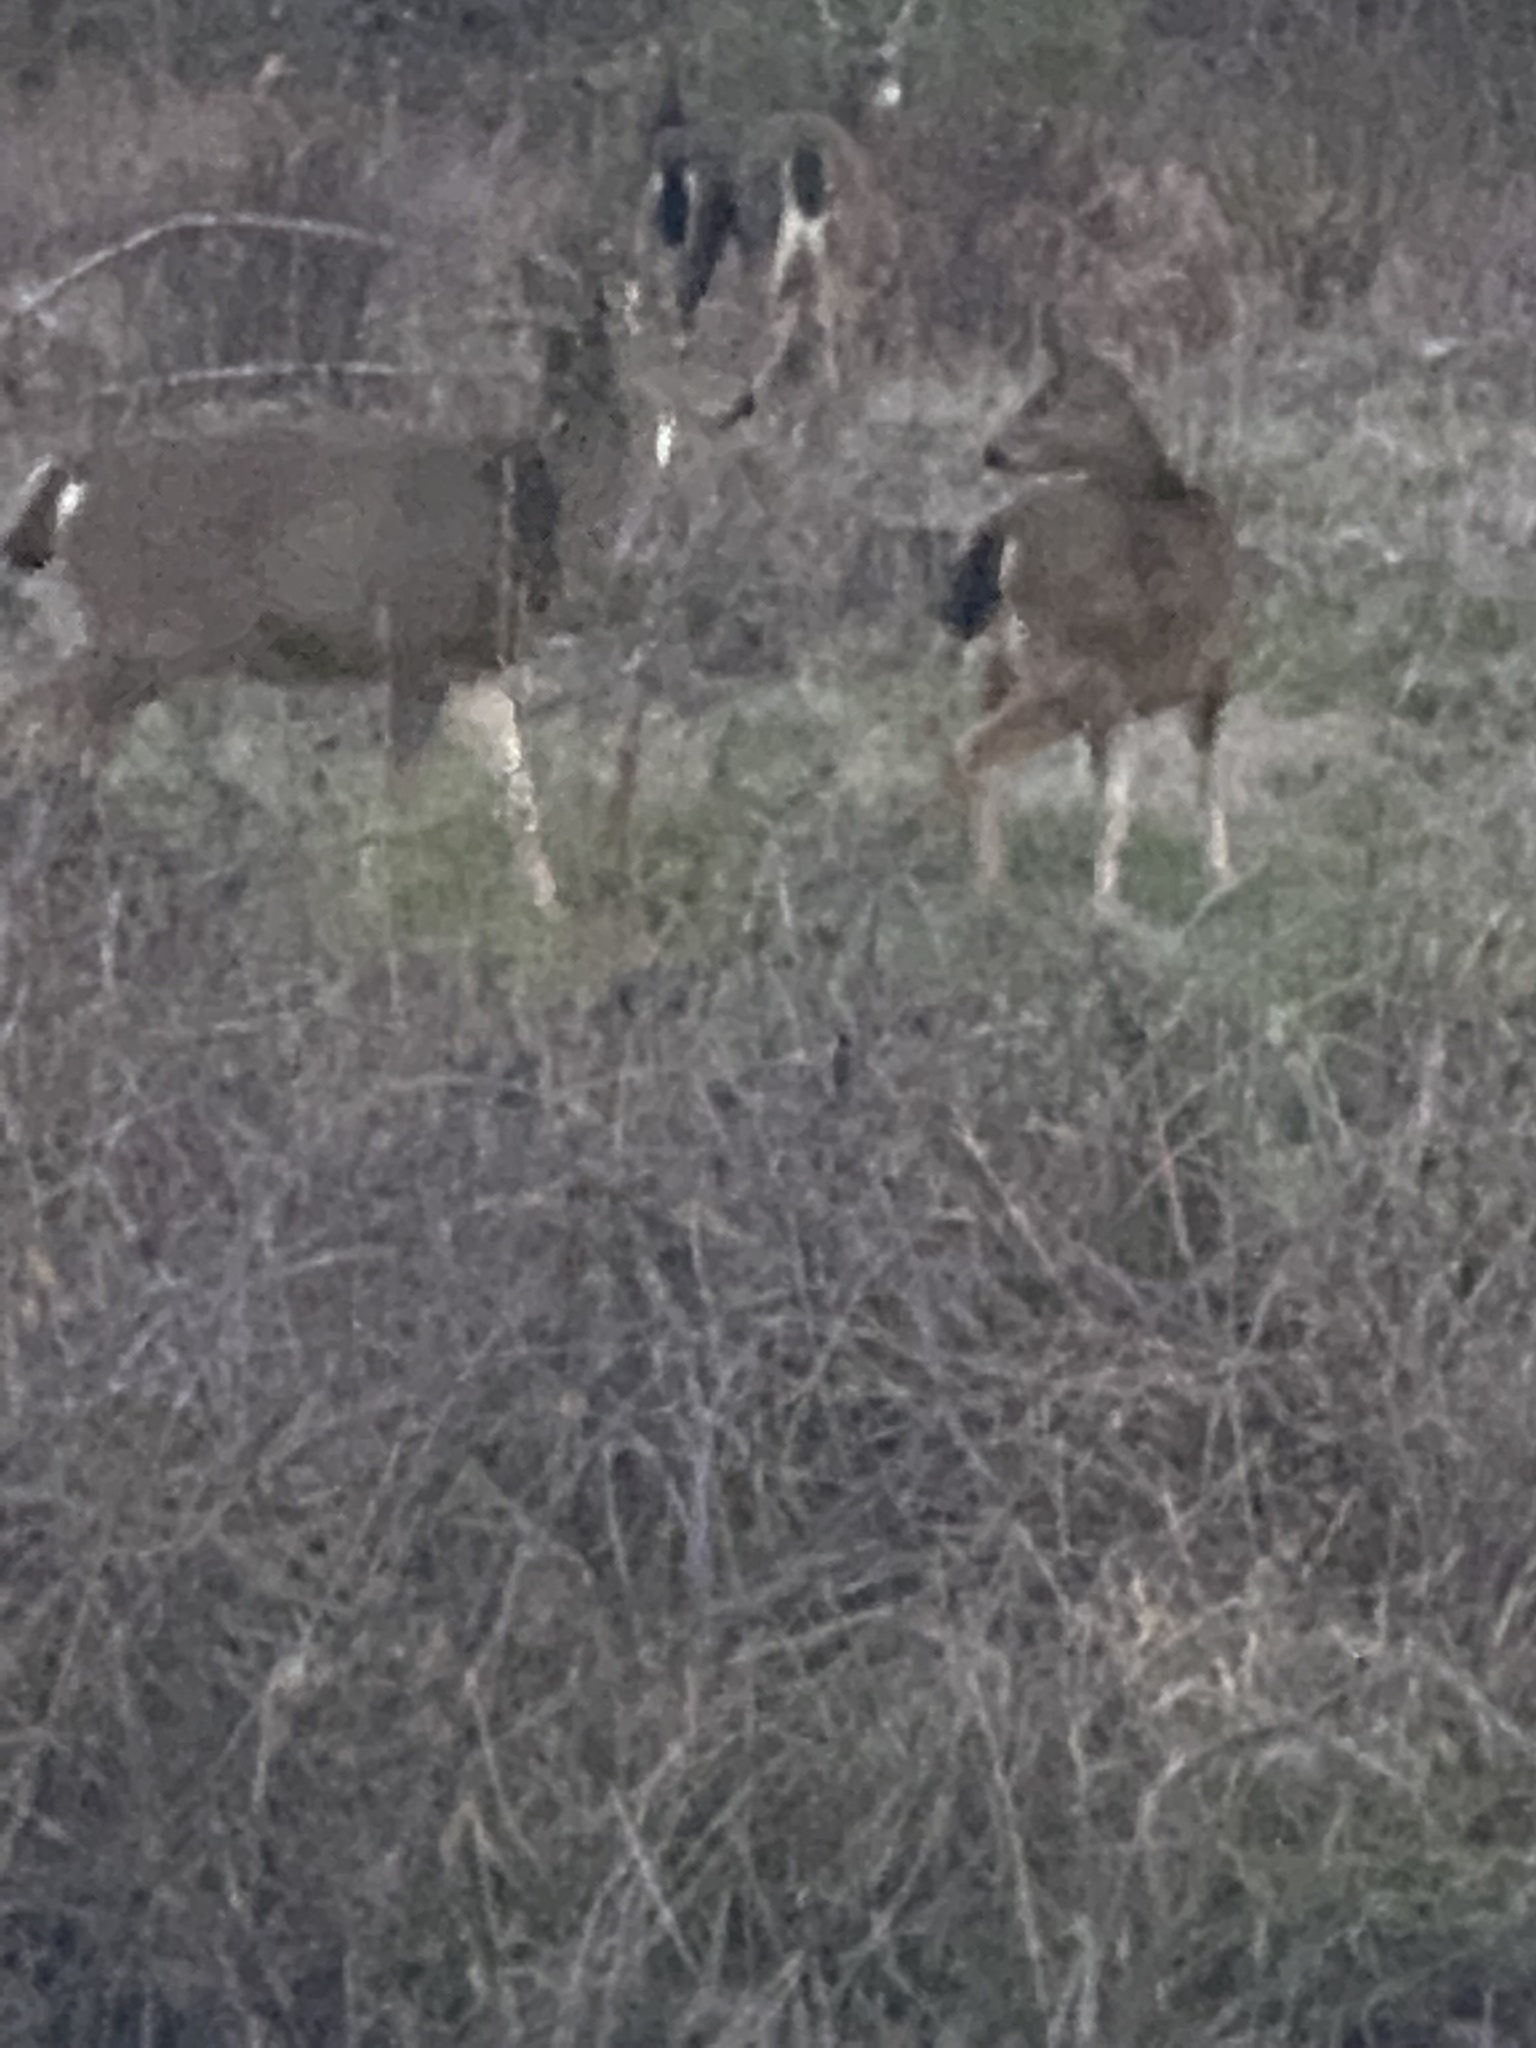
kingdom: Animalia
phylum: Chordata
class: Mammalia
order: Artiodactyla
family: Cervidae
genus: Odocoileus
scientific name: Odocoileus hemionus
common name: Mule deer
